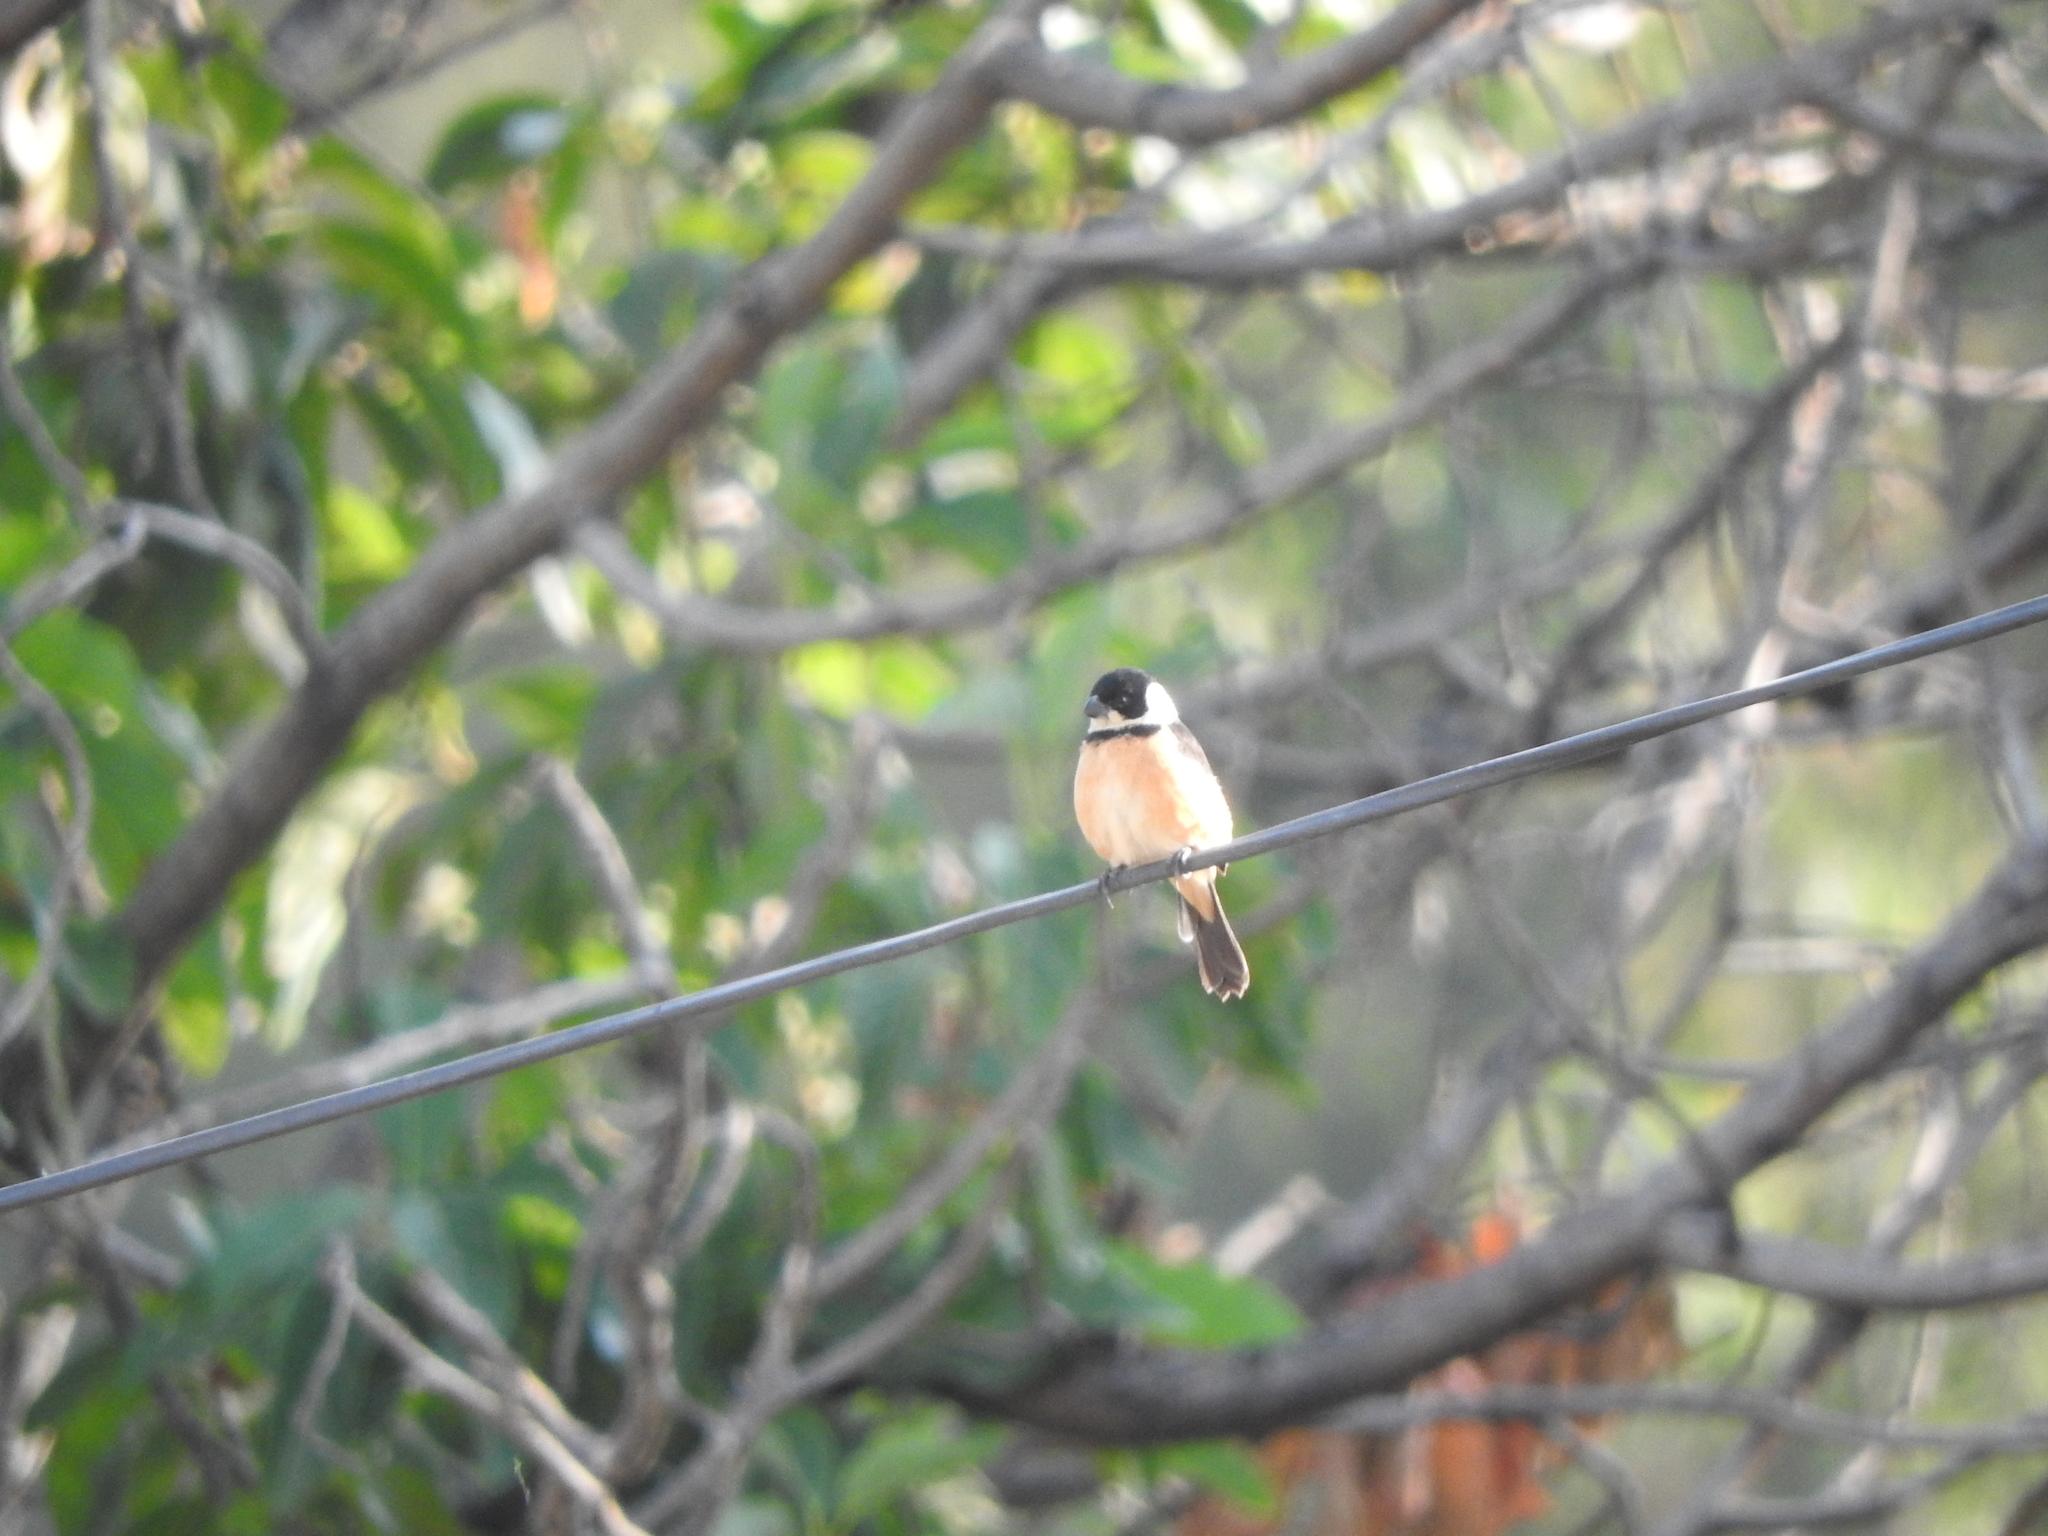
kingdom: Animalia
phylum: Chordata
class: Aves
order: Passeriformes
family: Thraupidae
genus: Sporophila
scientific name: Sporophila torqueola
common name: White-collared seedeater
